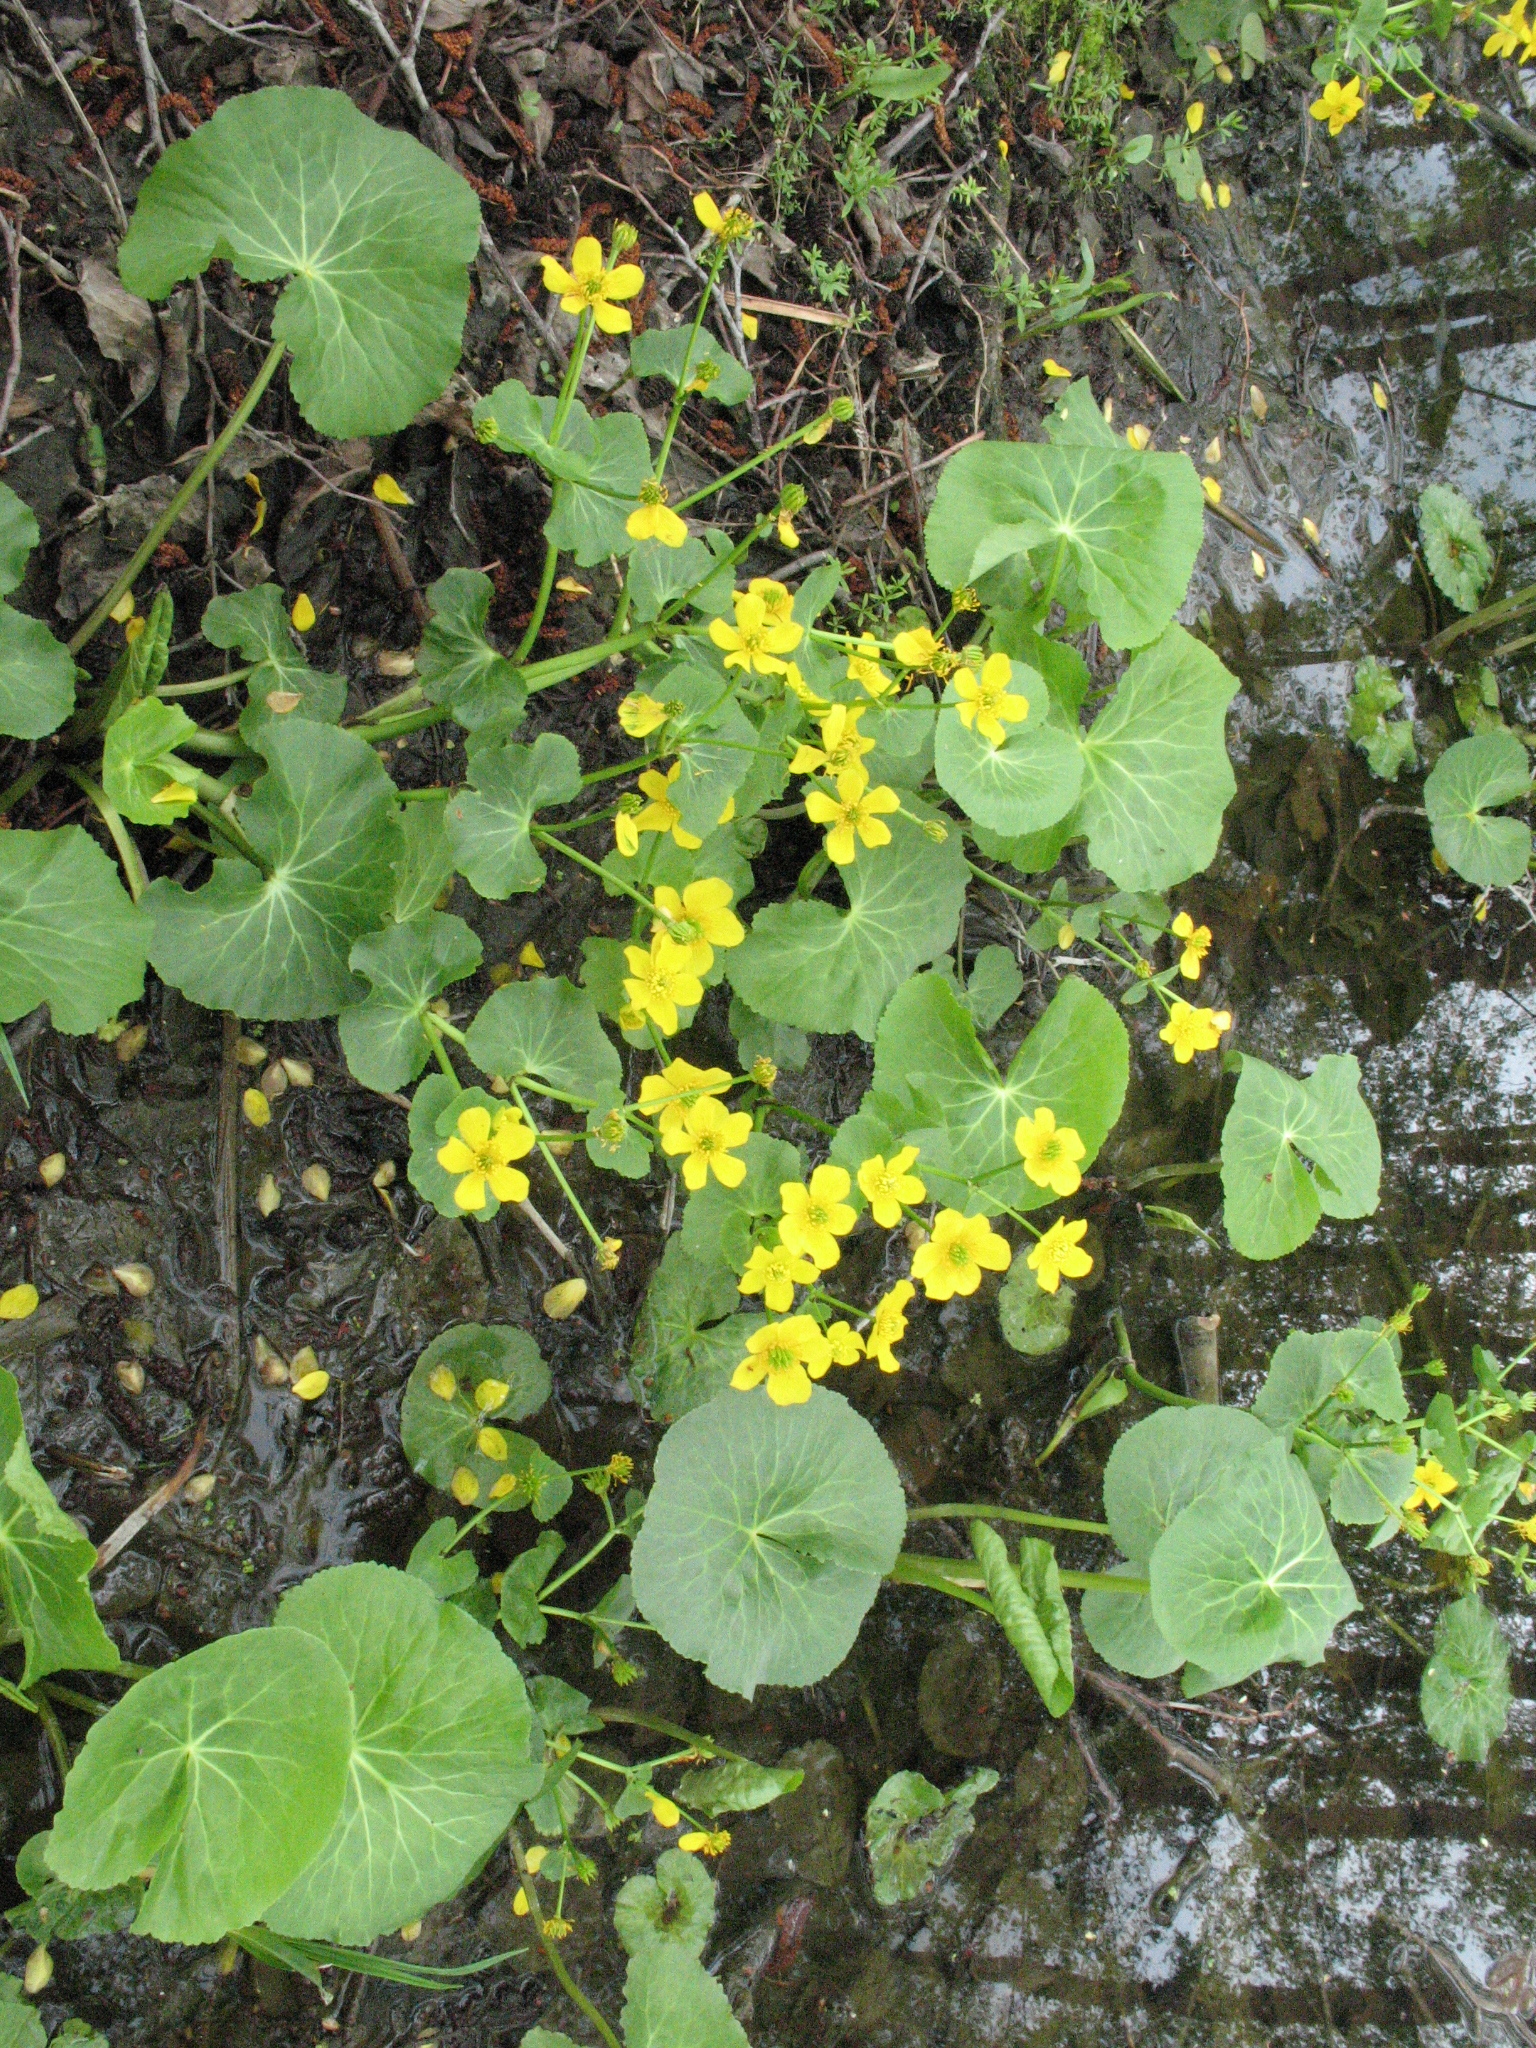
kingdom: Plantae
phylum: Tracheophyta
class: Magnoliopsida
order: Ranunculales
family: Ranunculaceae
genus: Caltha
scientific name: Caltha palustris
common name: Marsh marigold
